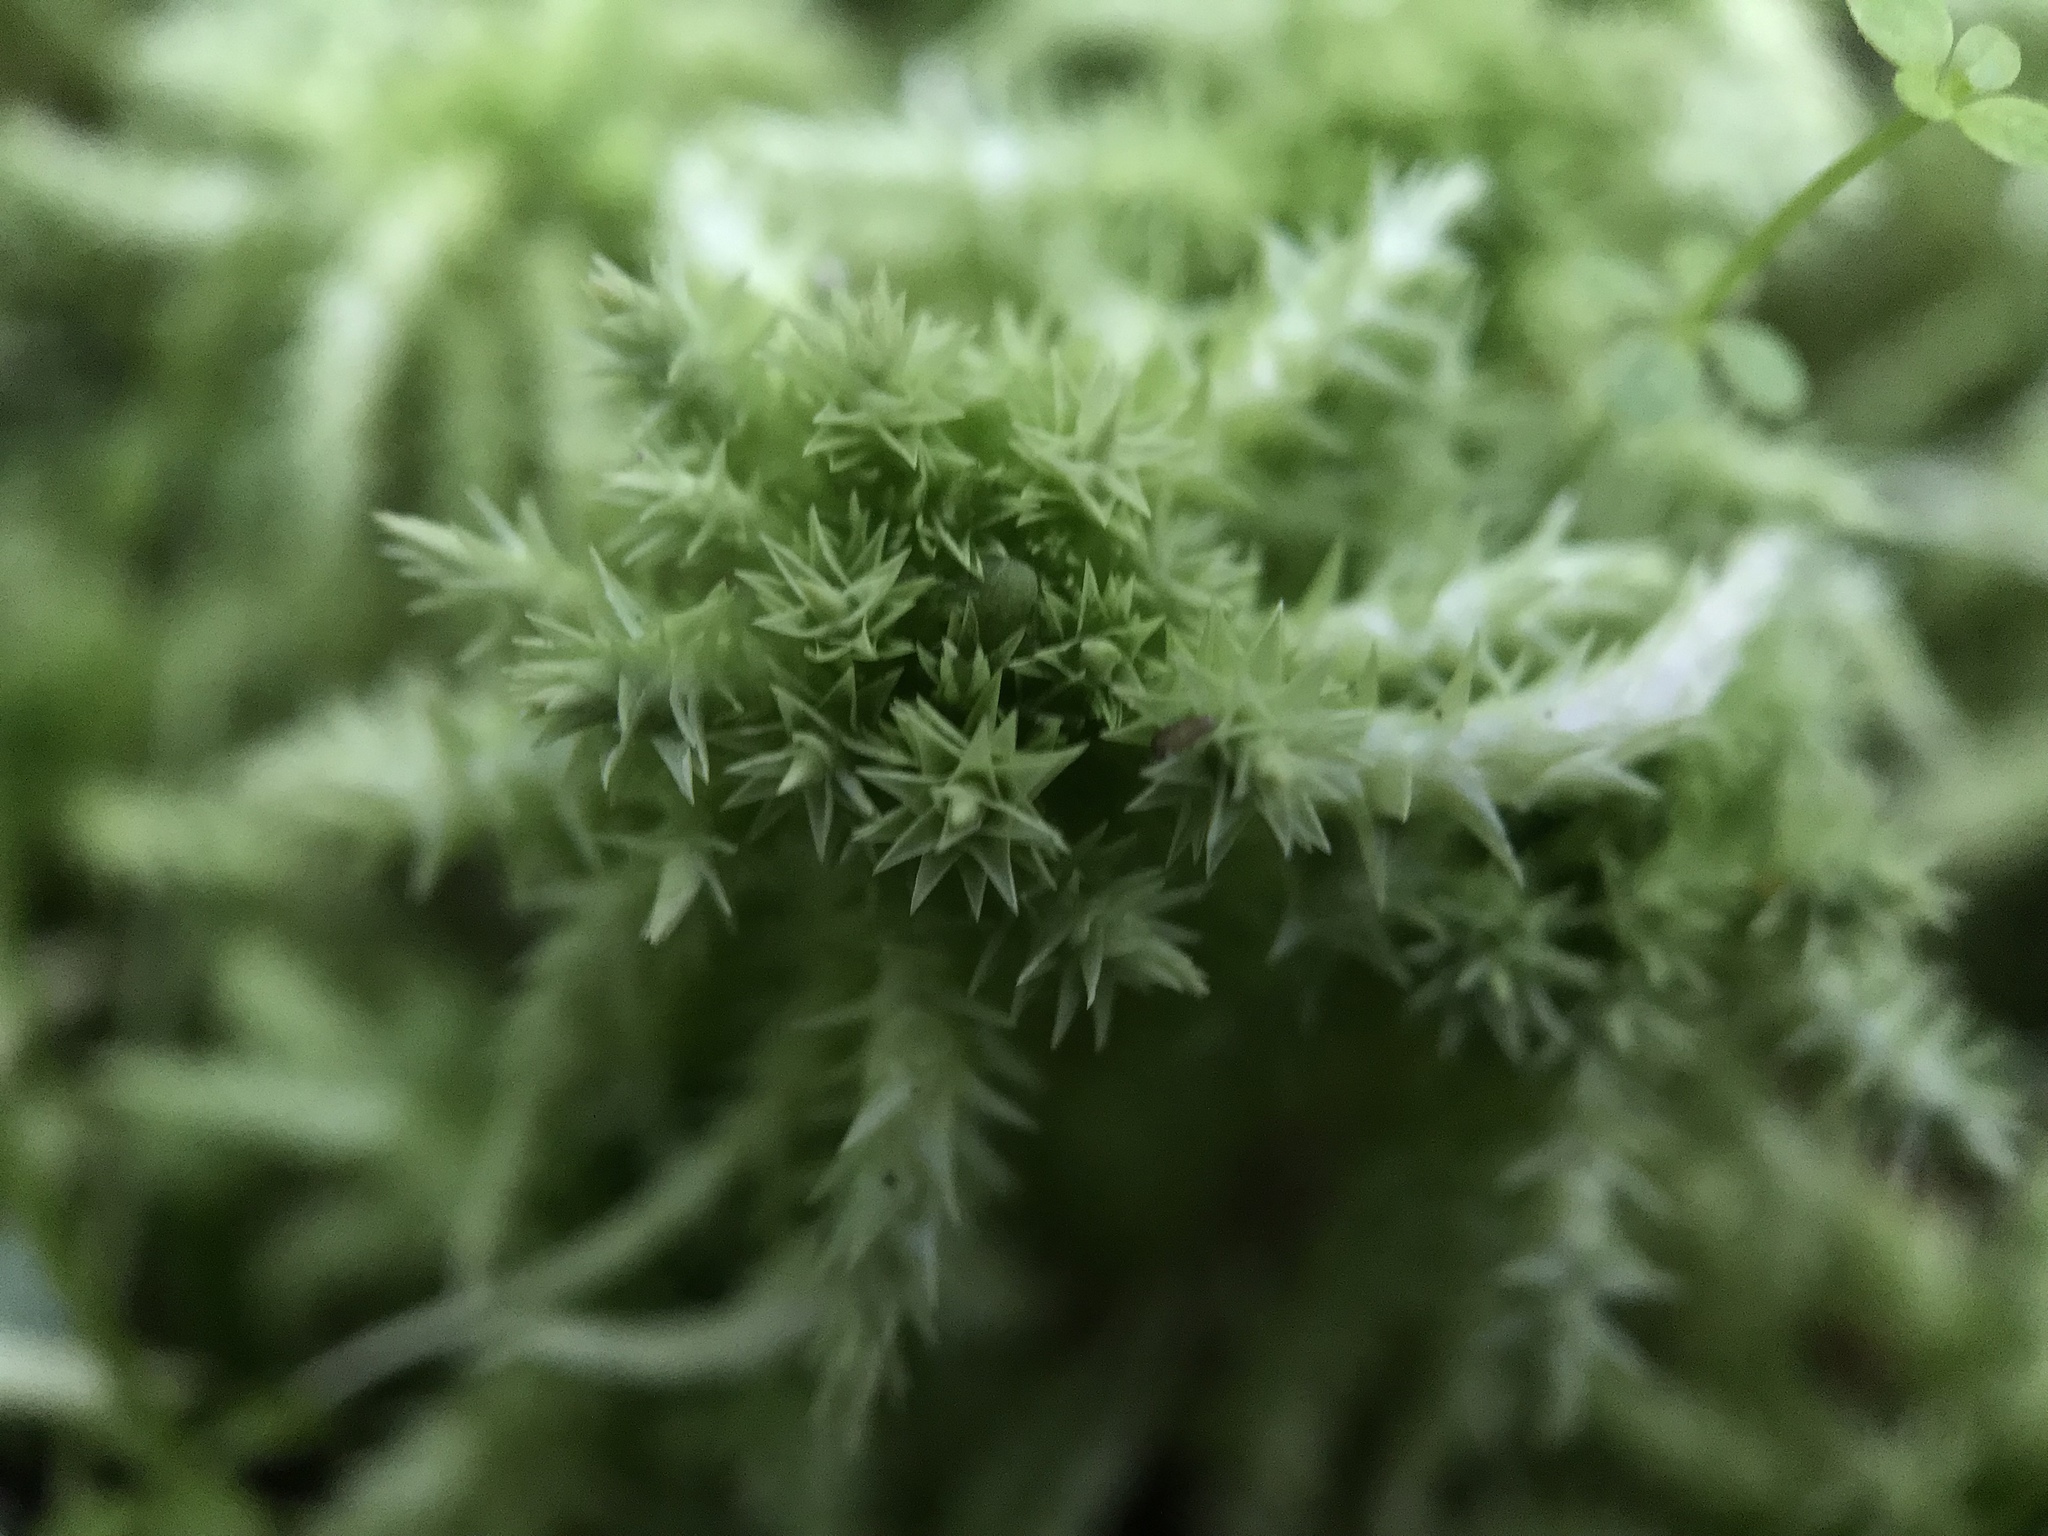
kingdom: Plantae
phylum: Bryophyta
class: Sphagnopsida
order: Sphagnales
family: Sphagnaceae
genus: Sphagnum
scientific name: Sphagnum squarrosum
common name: Shaggy peat moss
